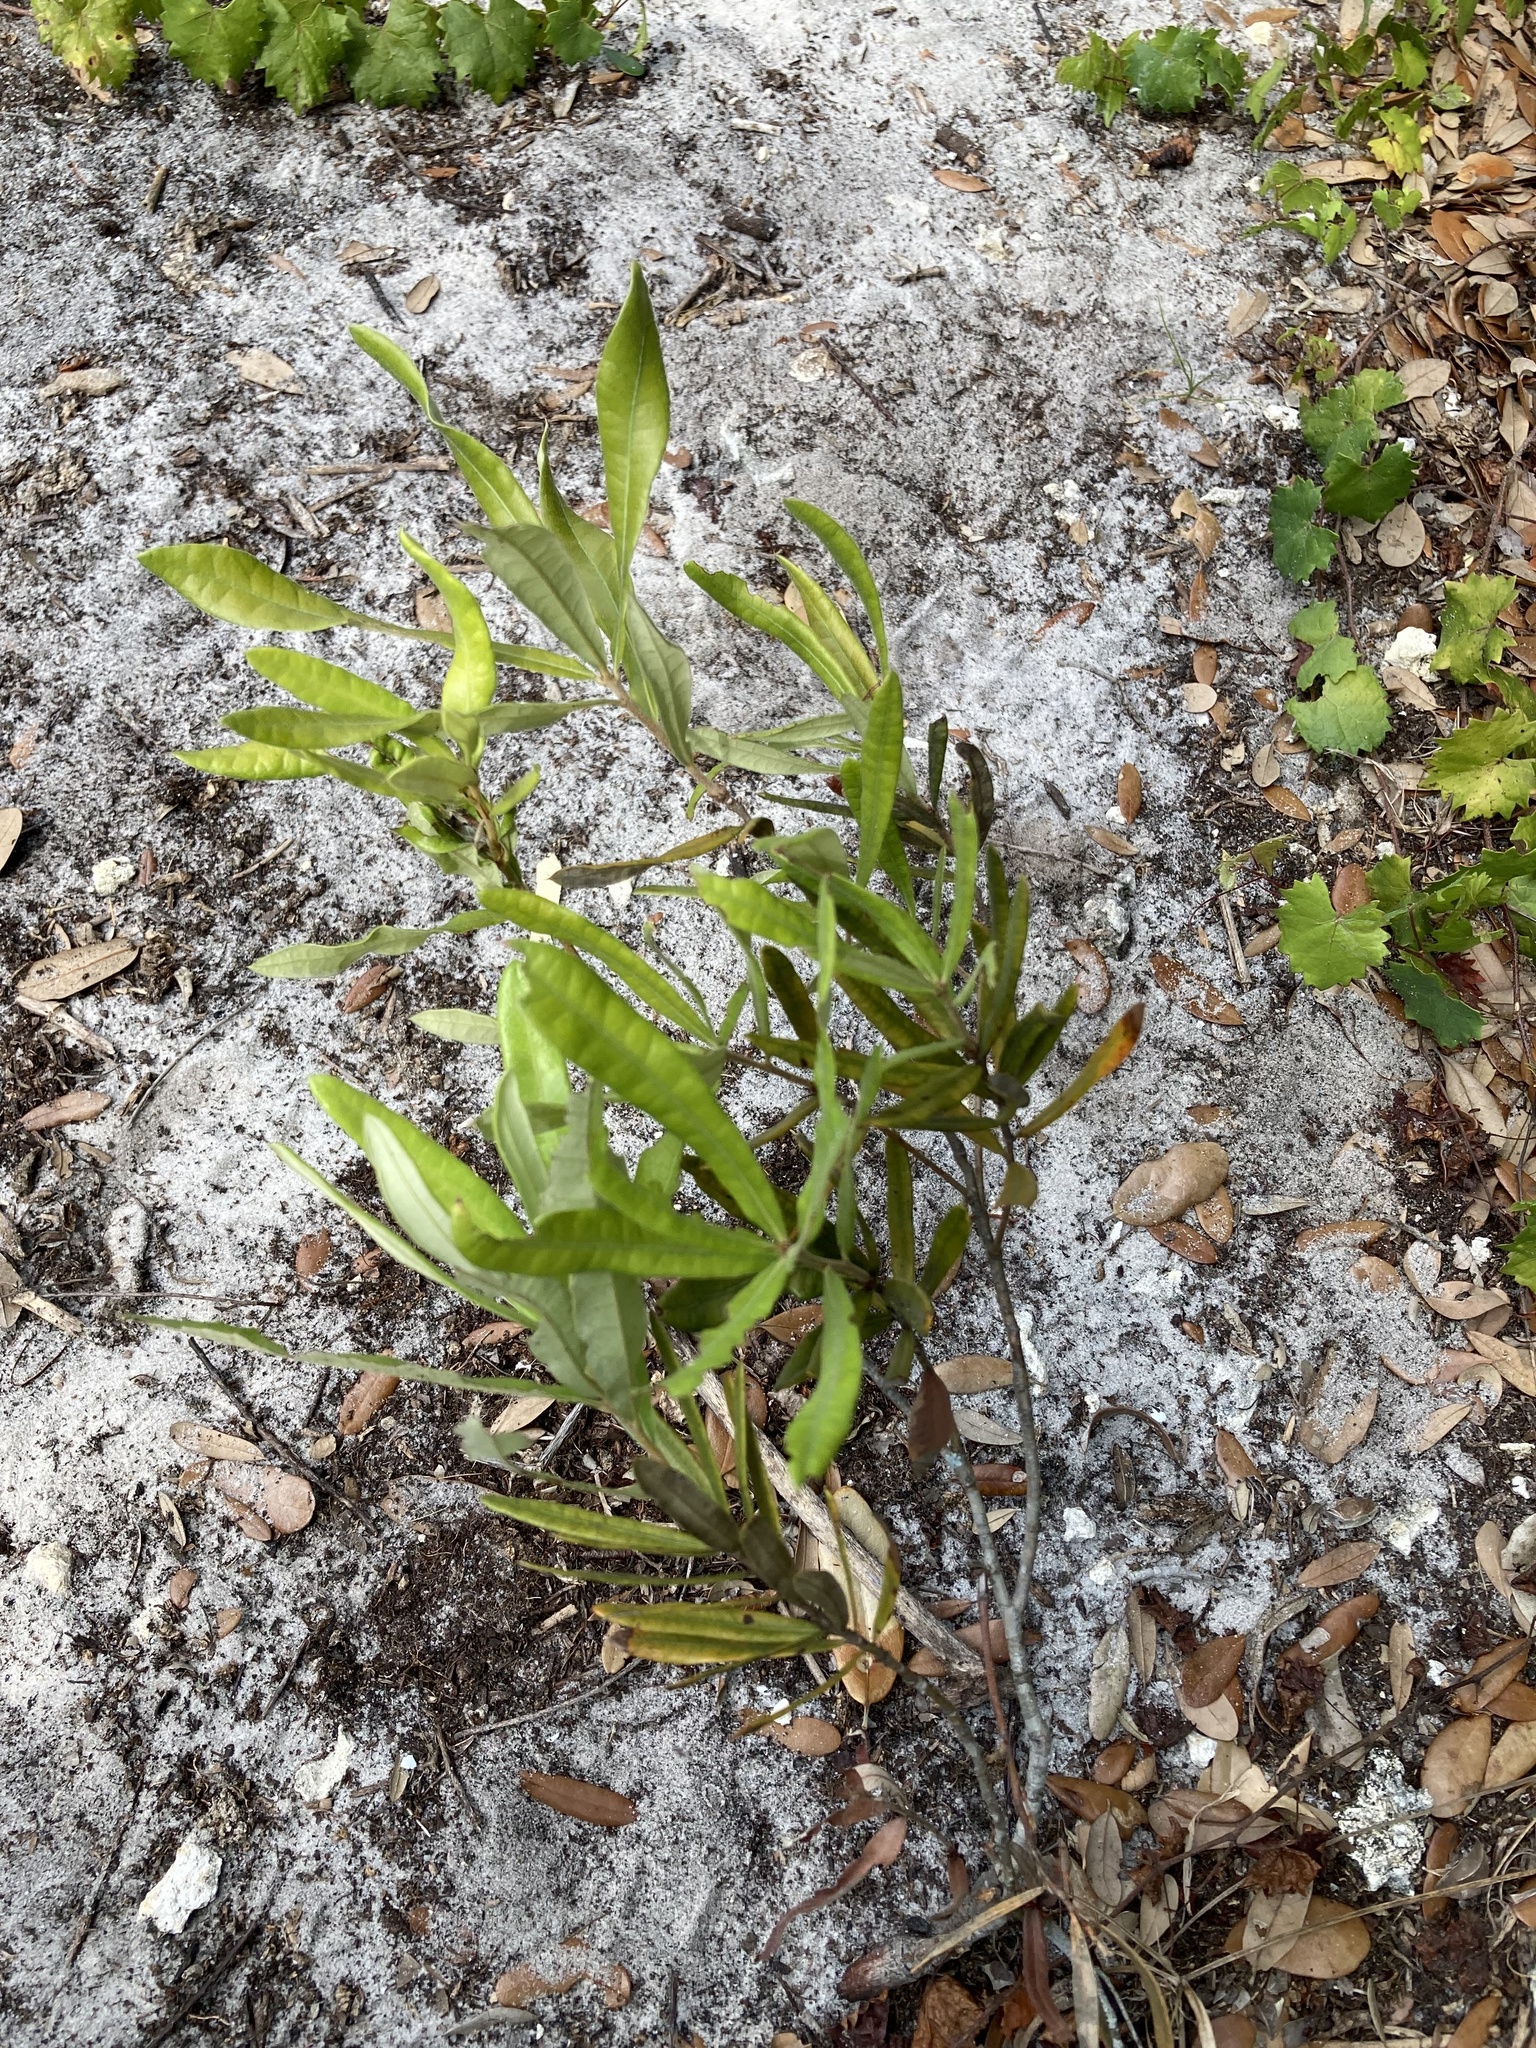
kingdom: Plantae
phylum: Tracheophyta
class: Magnoliopsida
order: Fagales
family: Fagaceae
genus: Quercus
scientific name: Quercus pumila
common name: Runner oak
